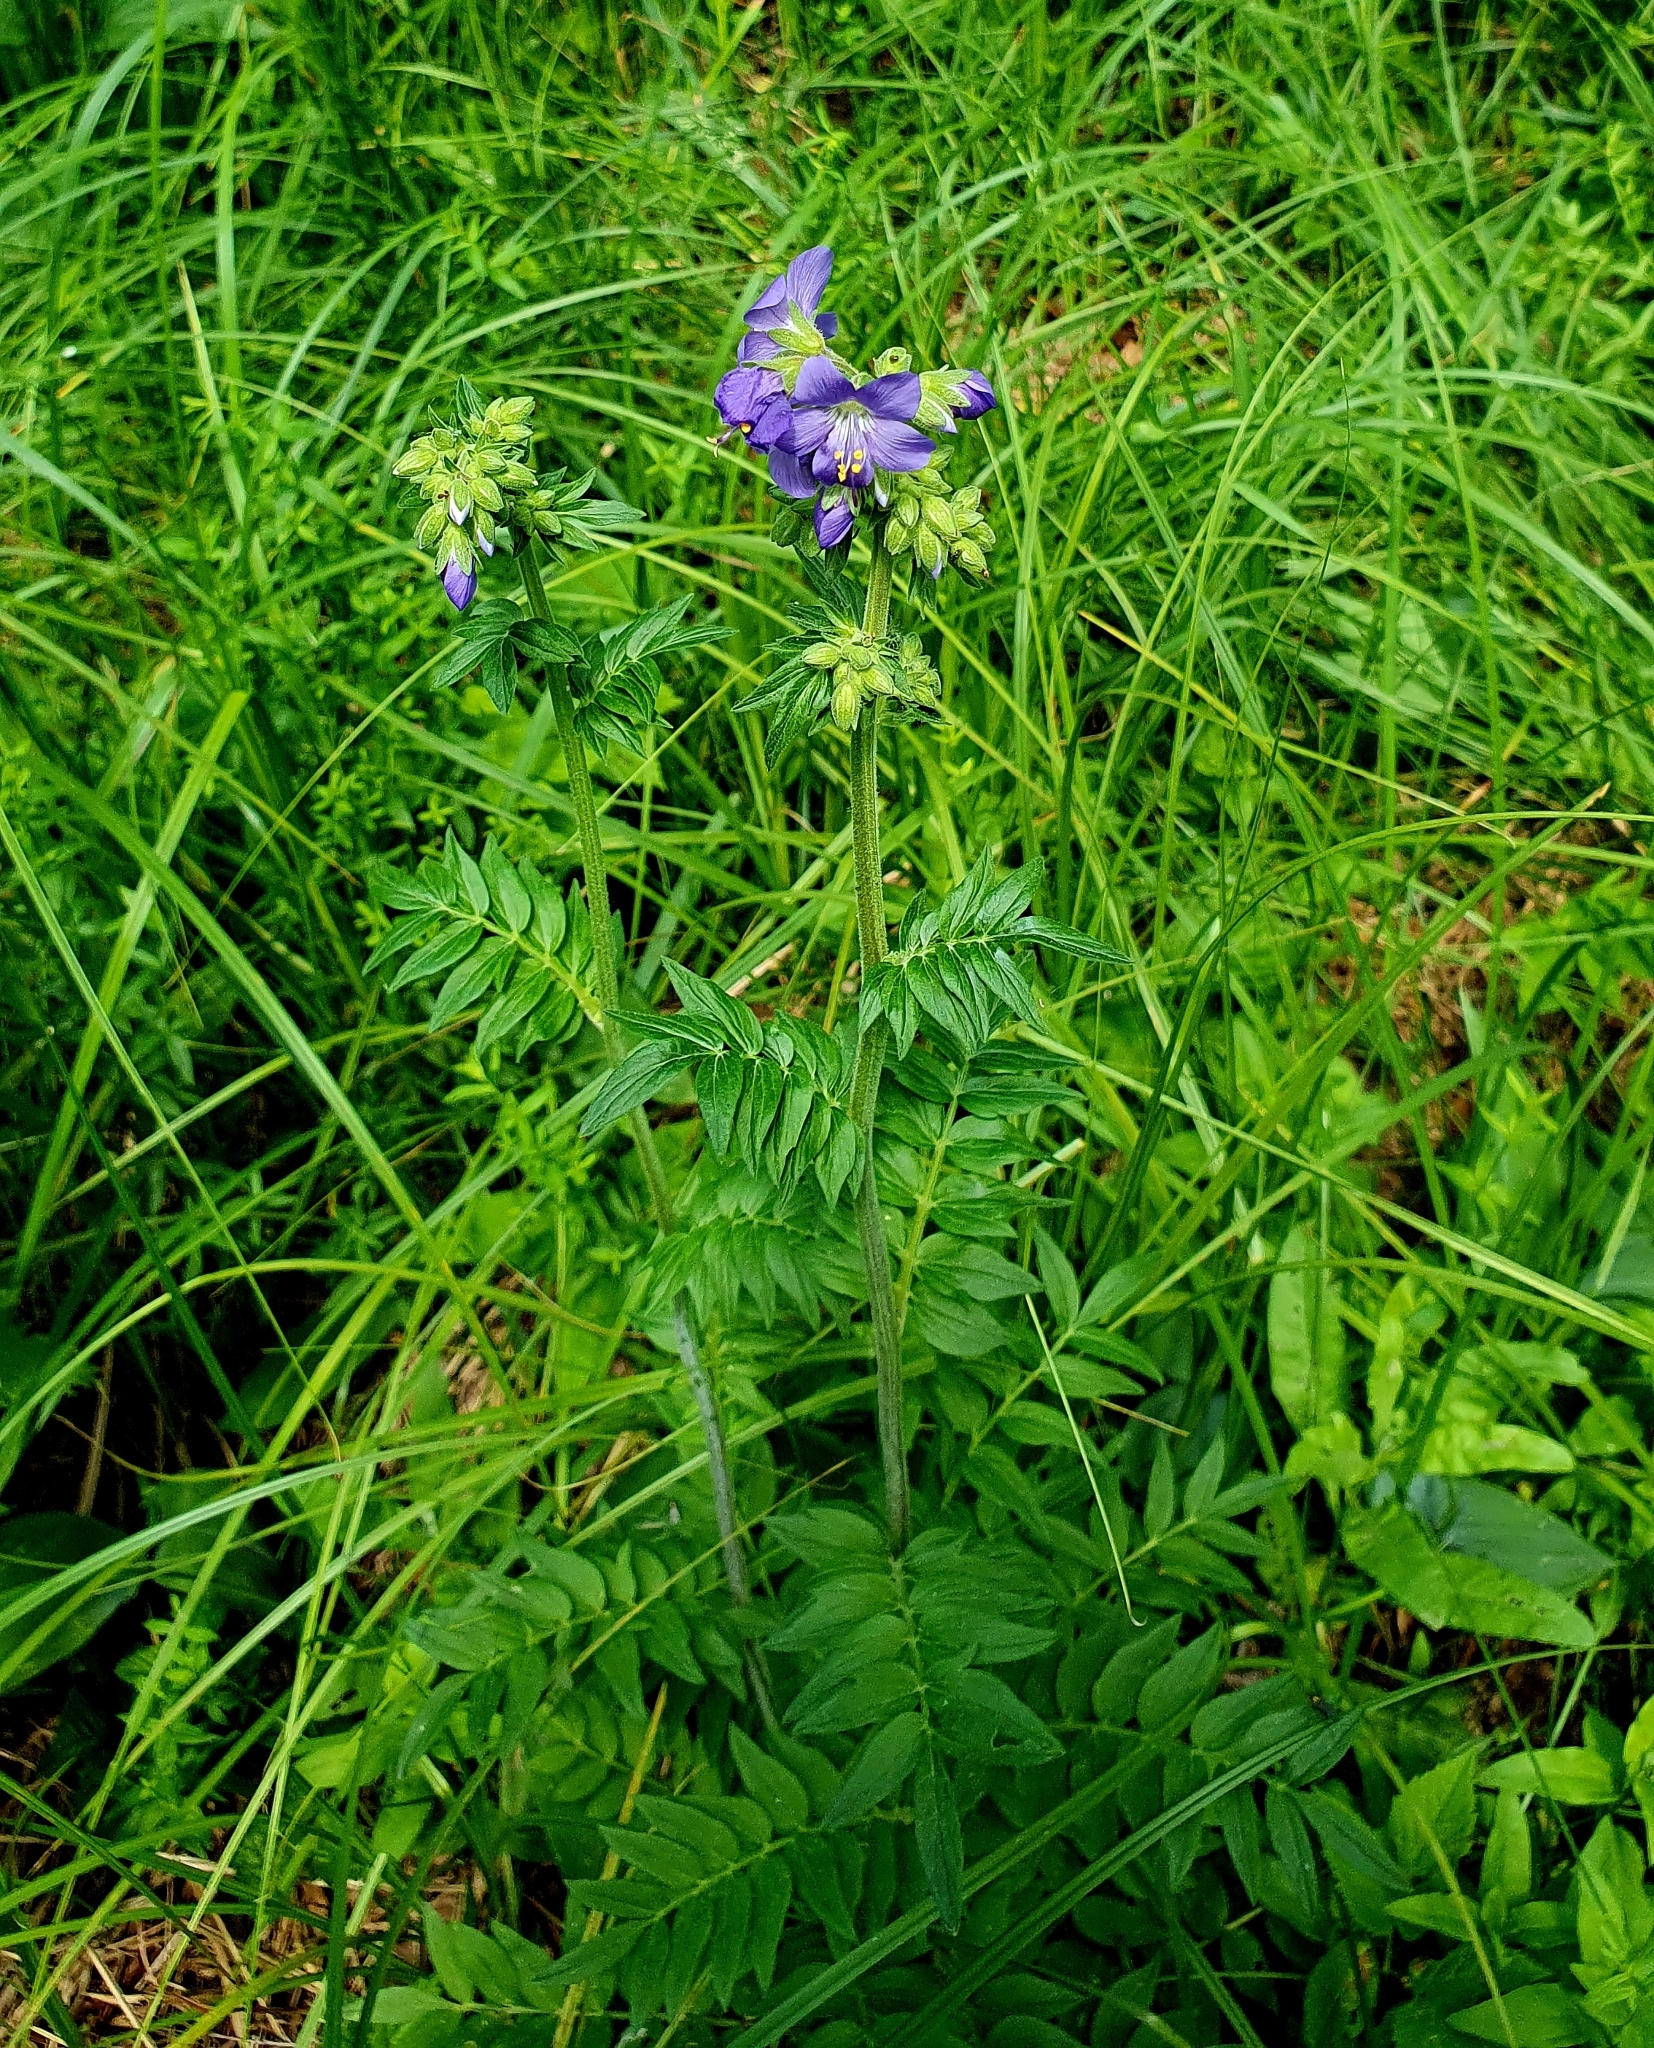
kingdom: Plantae
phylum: Tracheophyta
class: Magnoliopsida
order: Ericales
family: Polemoniaceae
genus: Polemonium
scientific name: Polemonium caeruleum
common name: Jacob's-ladder
